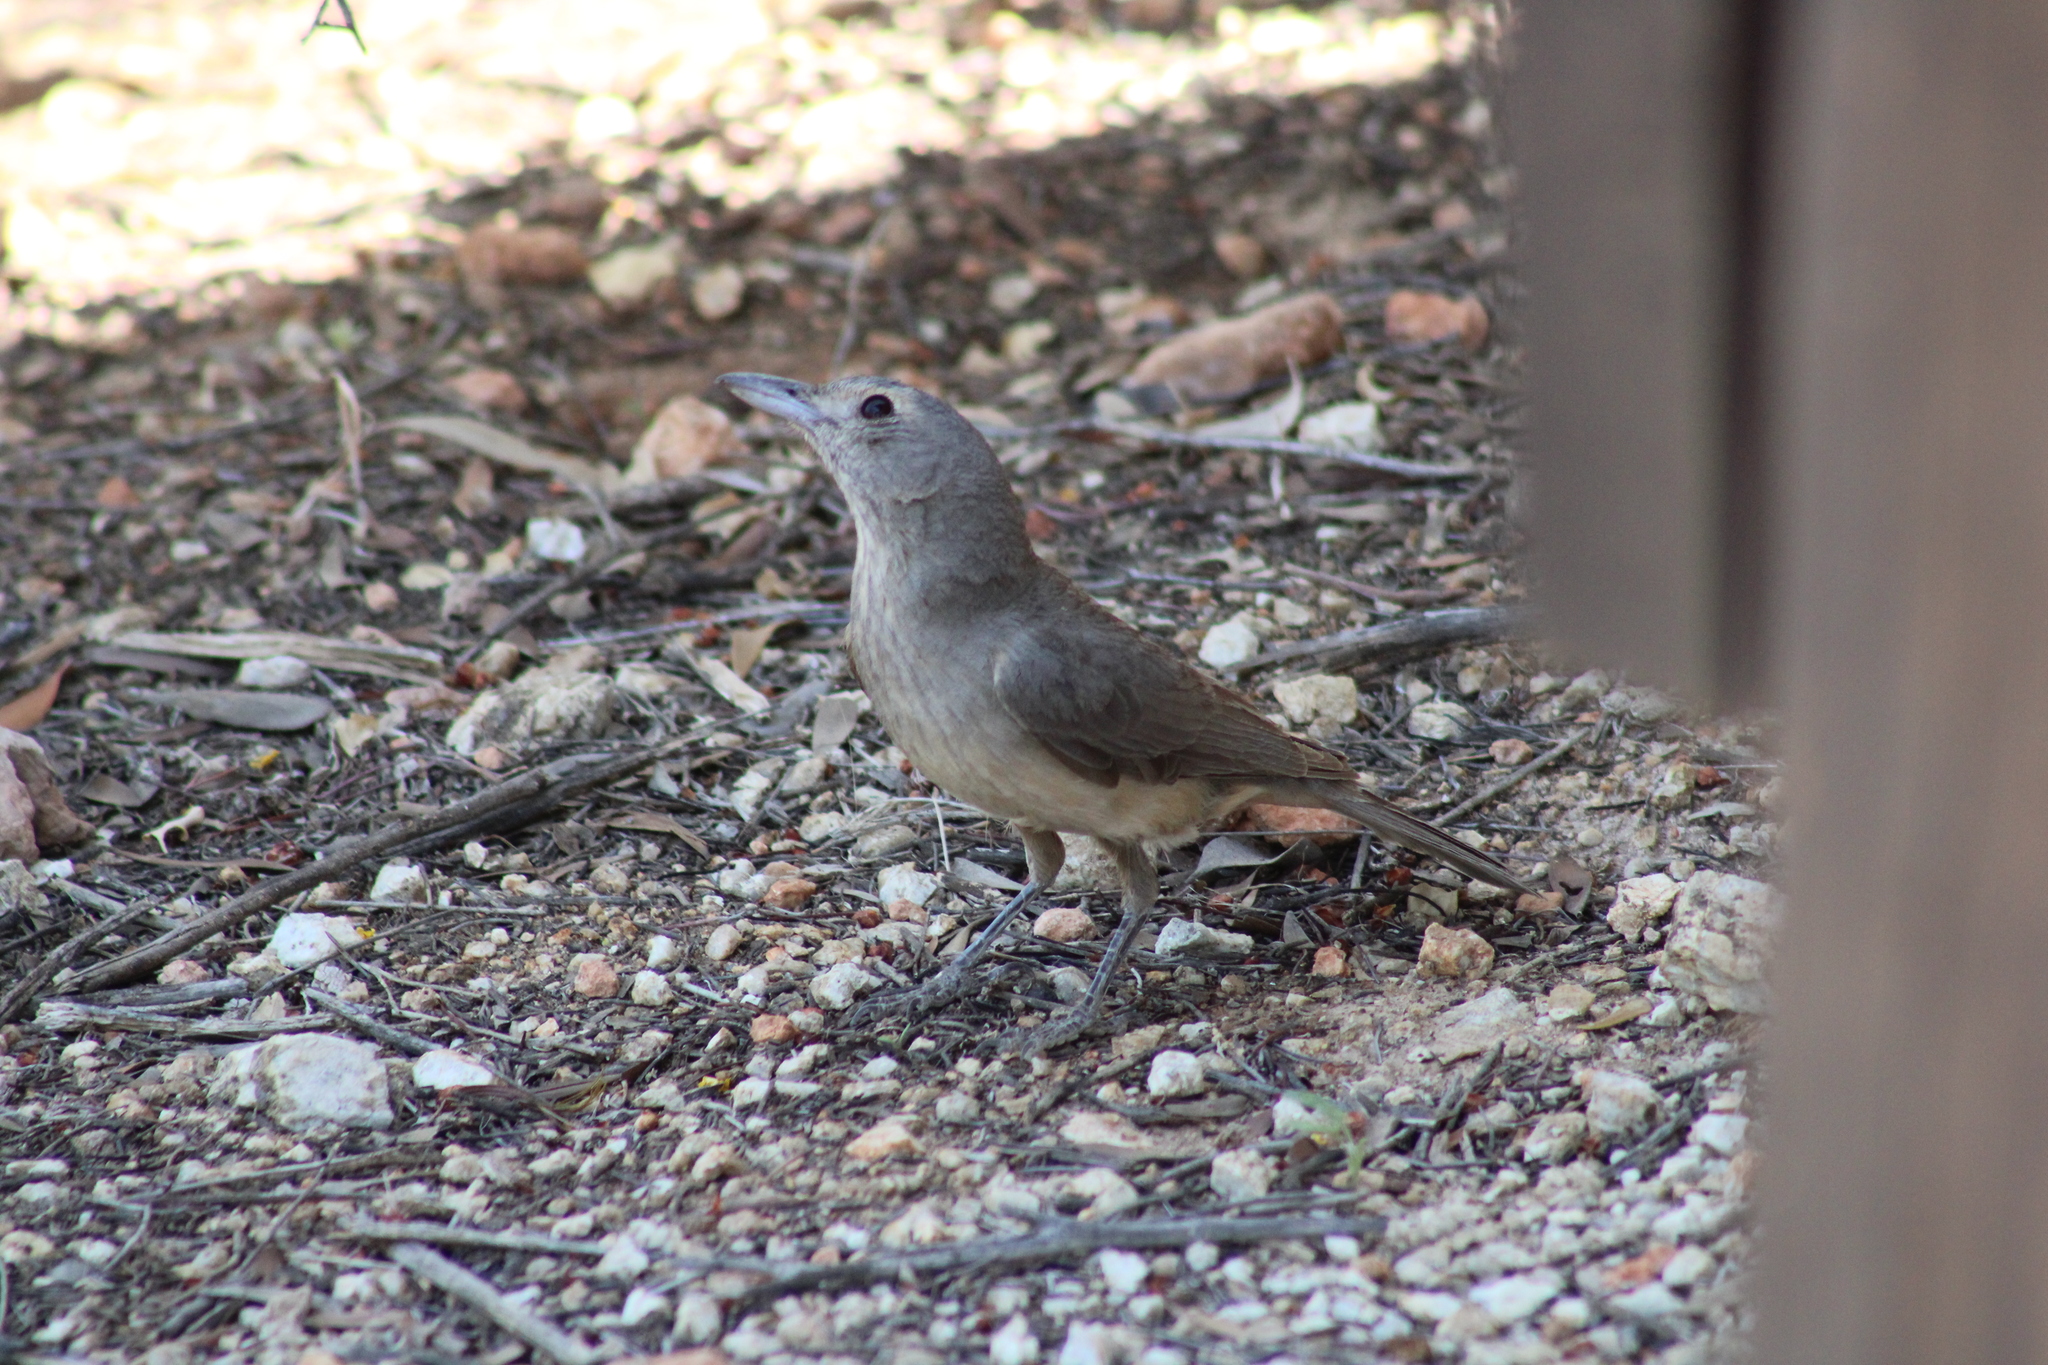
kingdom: Animalia
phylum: Chordata
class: Aves
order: Passeriformes
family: Pachycephalidae
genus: Colluricincla
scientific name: Colluricincla harmonica
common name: Grey shrikethrush
